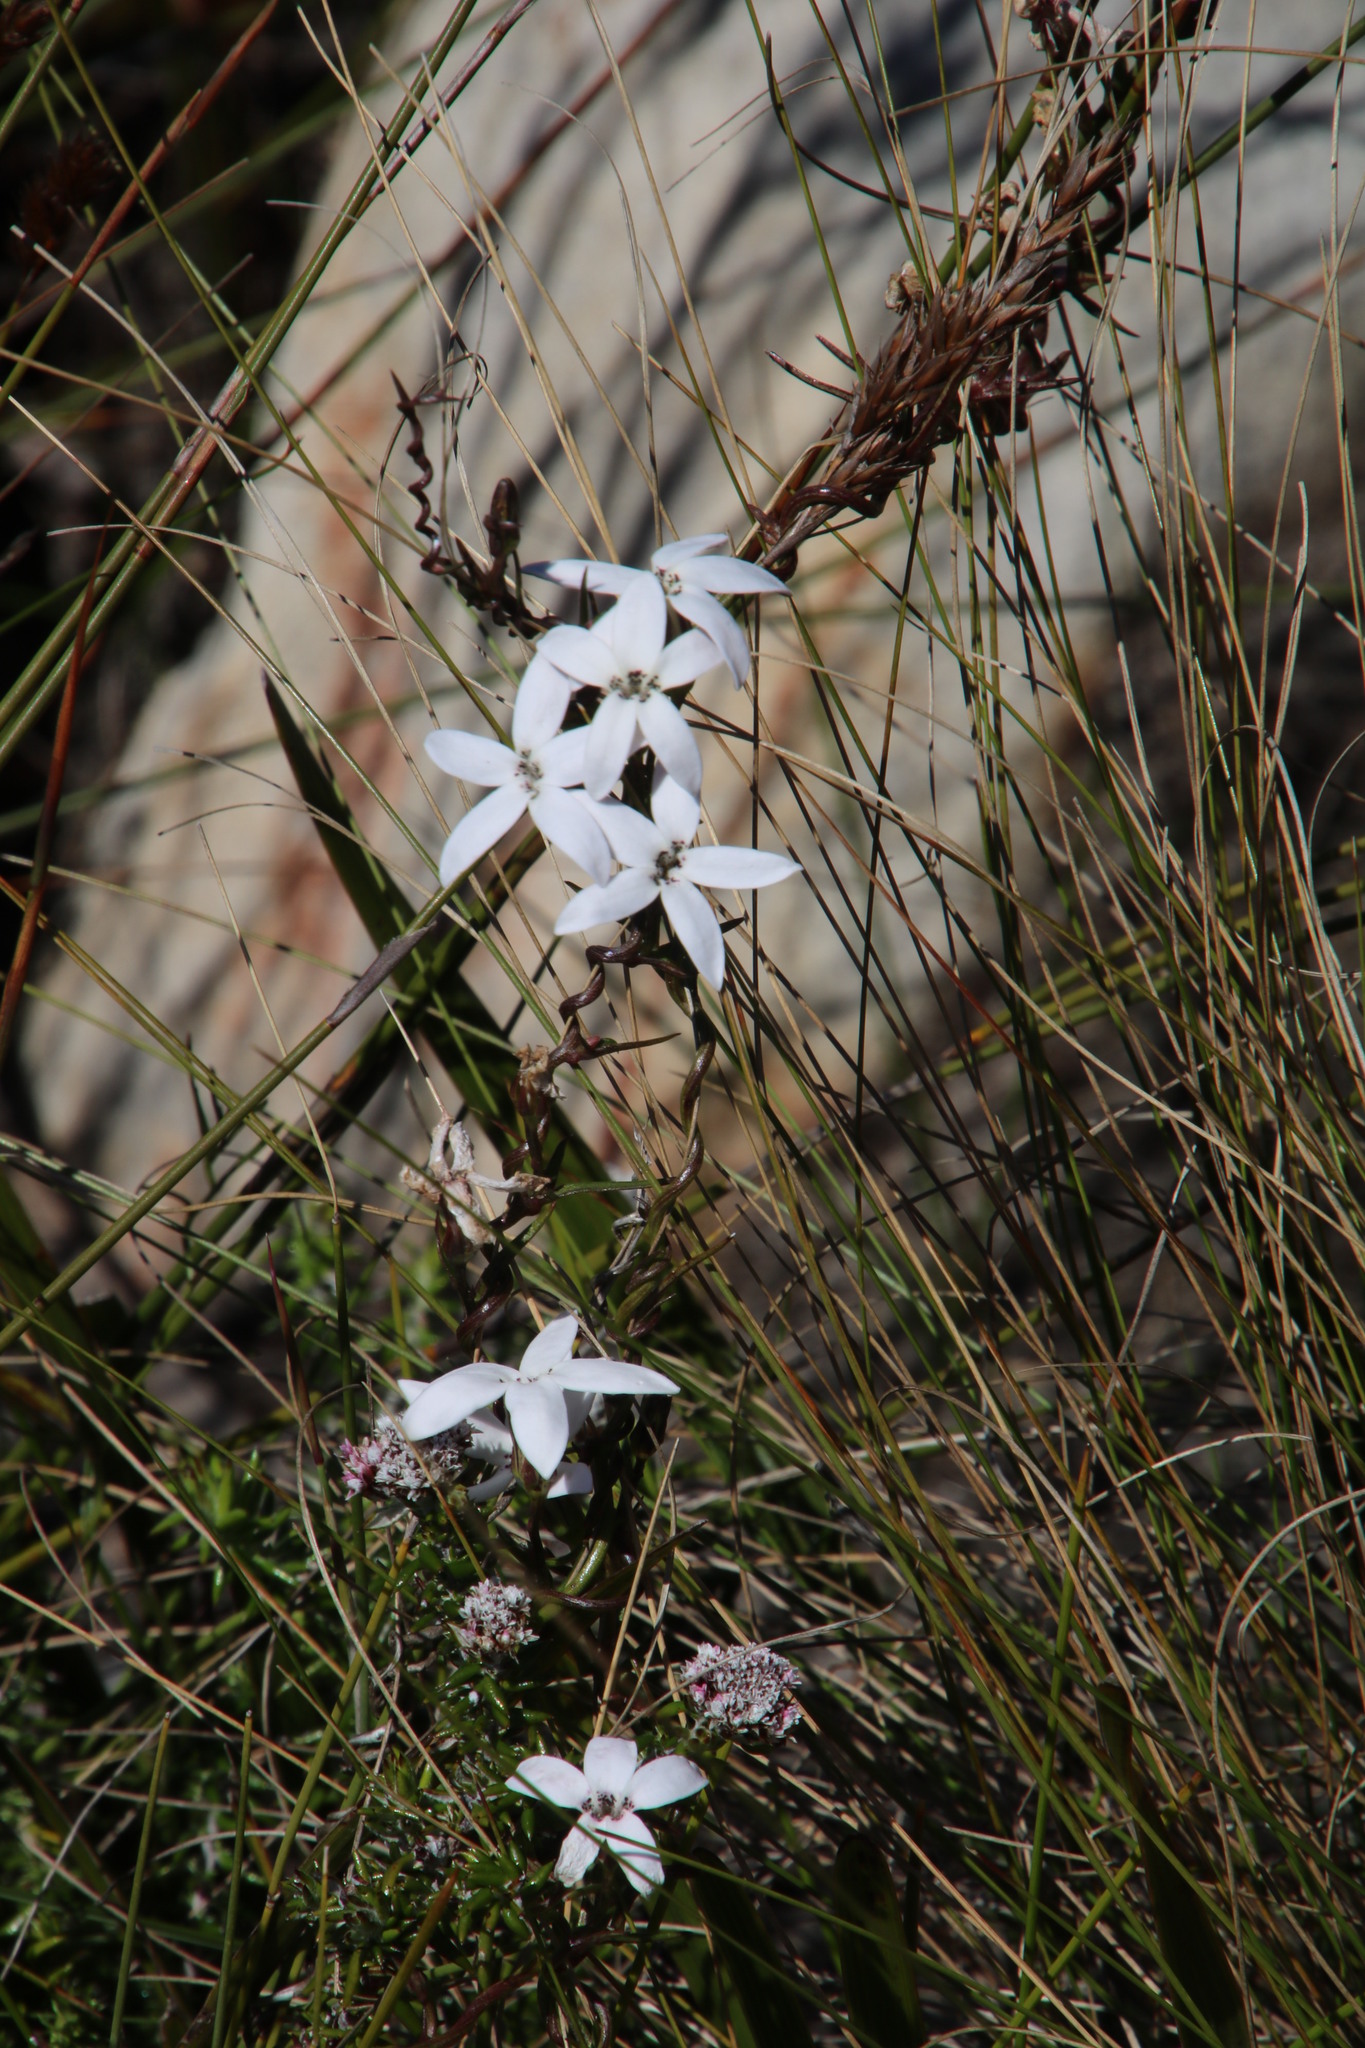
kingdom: Plantae
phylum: Tracheophyta
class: Magnoliopsida
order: Asterales
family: Campanulaceae
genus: Cyphia
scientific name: Cyphia volubilis
